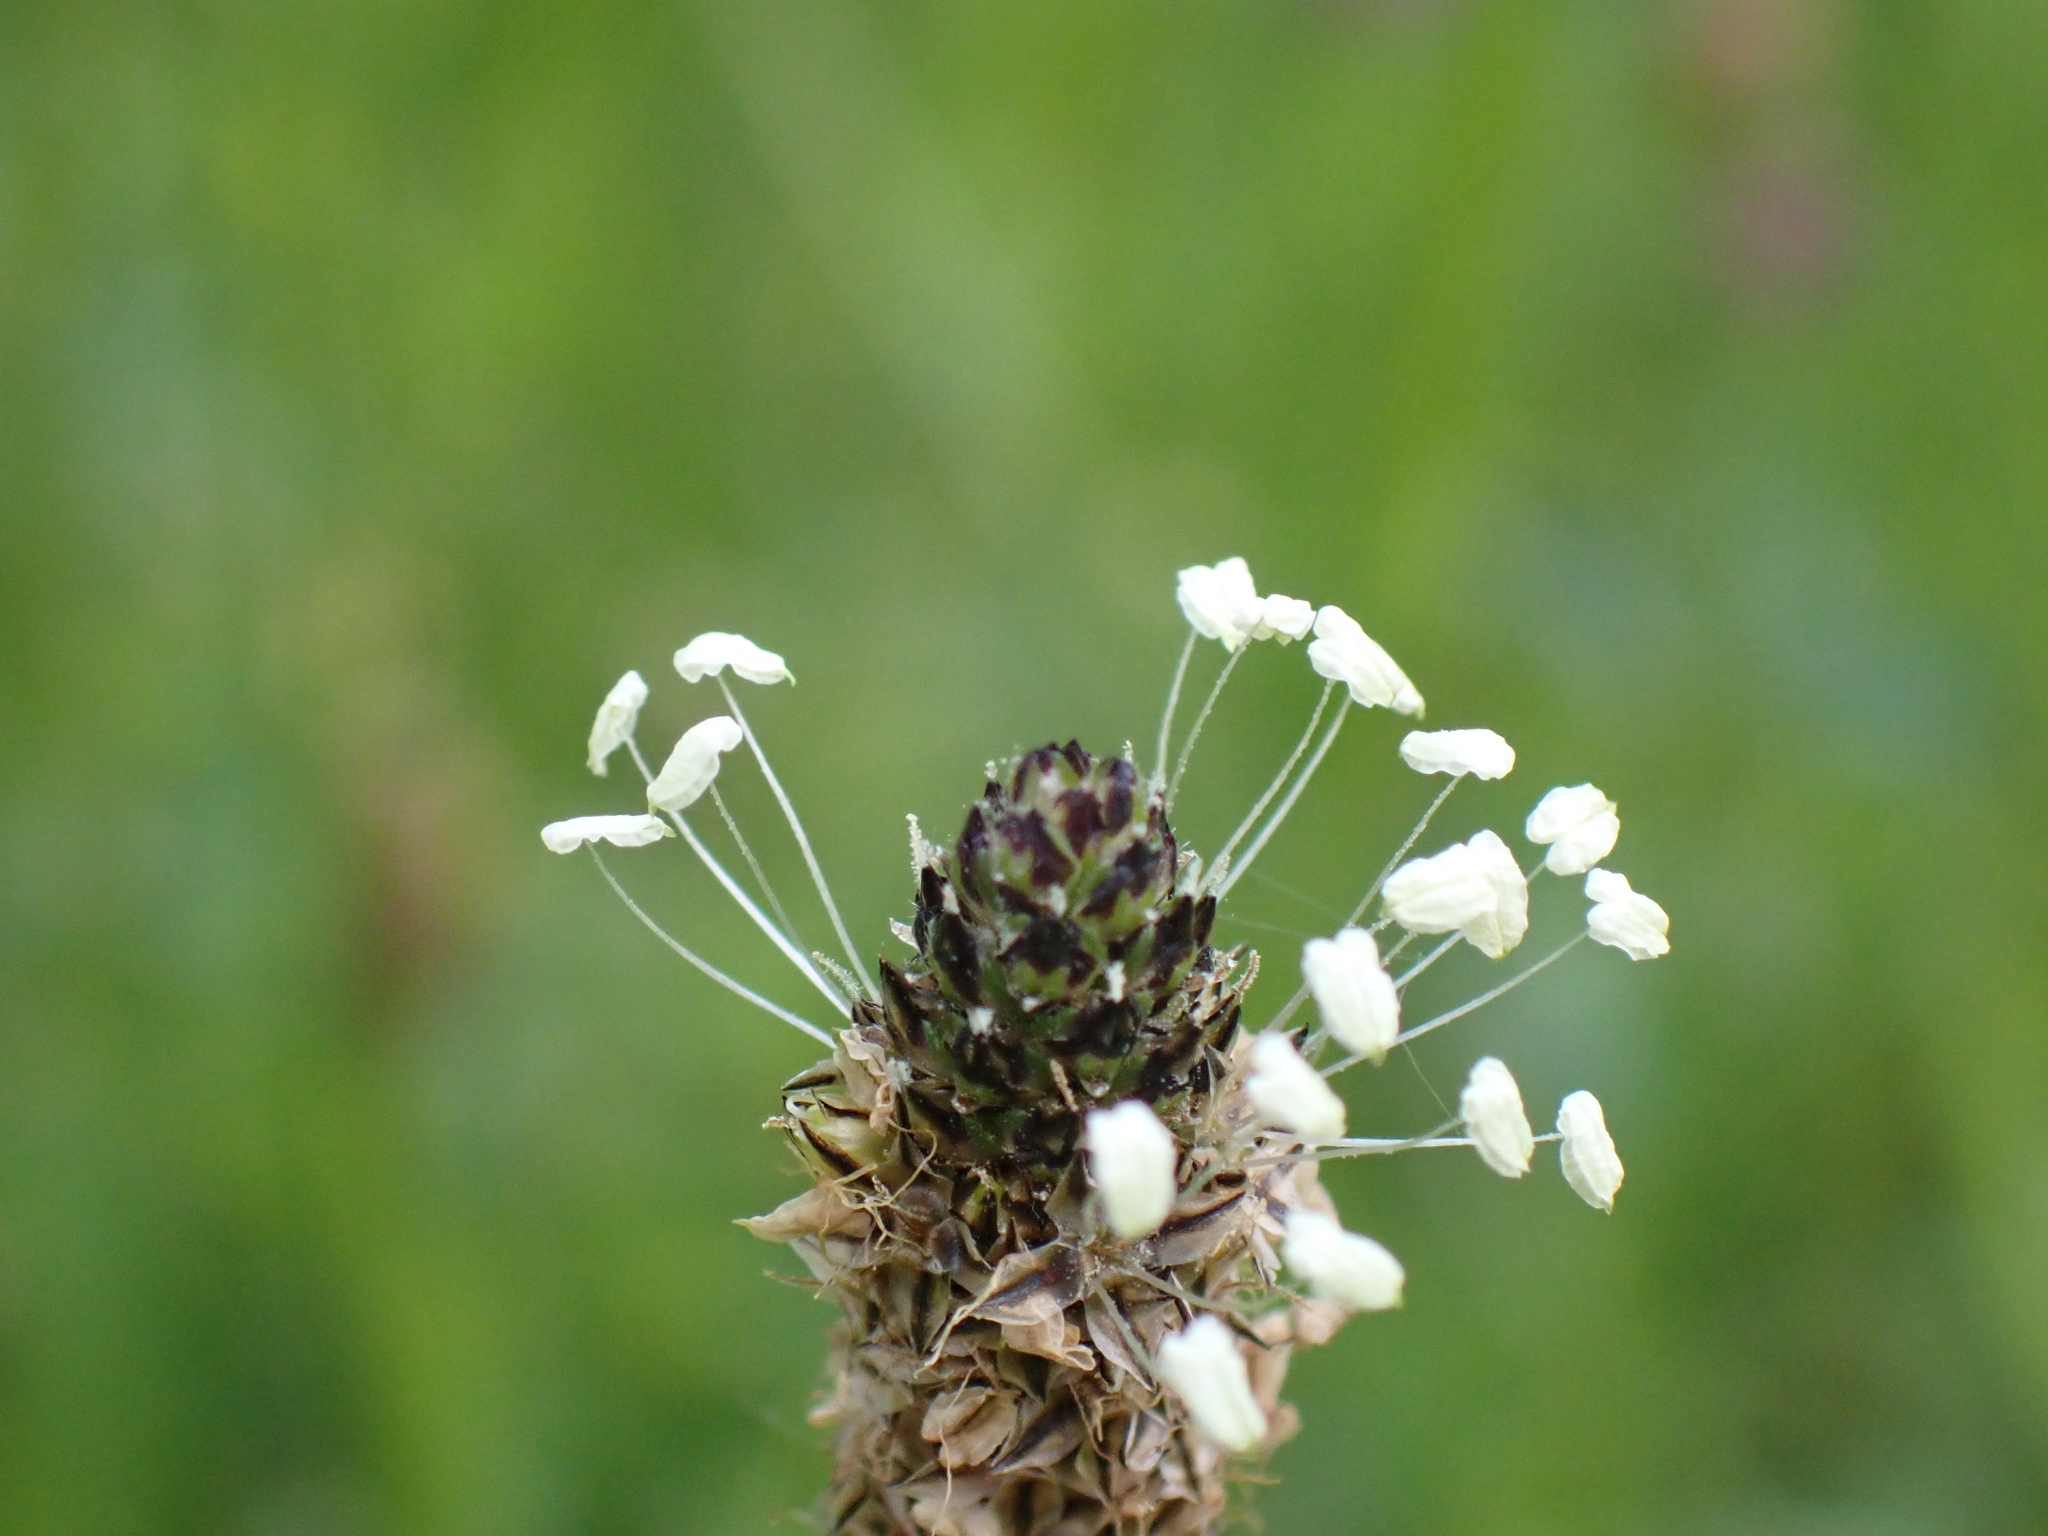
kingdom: Plantae
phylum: Tracheophyta
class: Magnoliopsida
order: Lamiales
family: Plantaginaceae
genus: Plantago
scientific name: Plantago lanceolata
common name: Ribwort plantain
